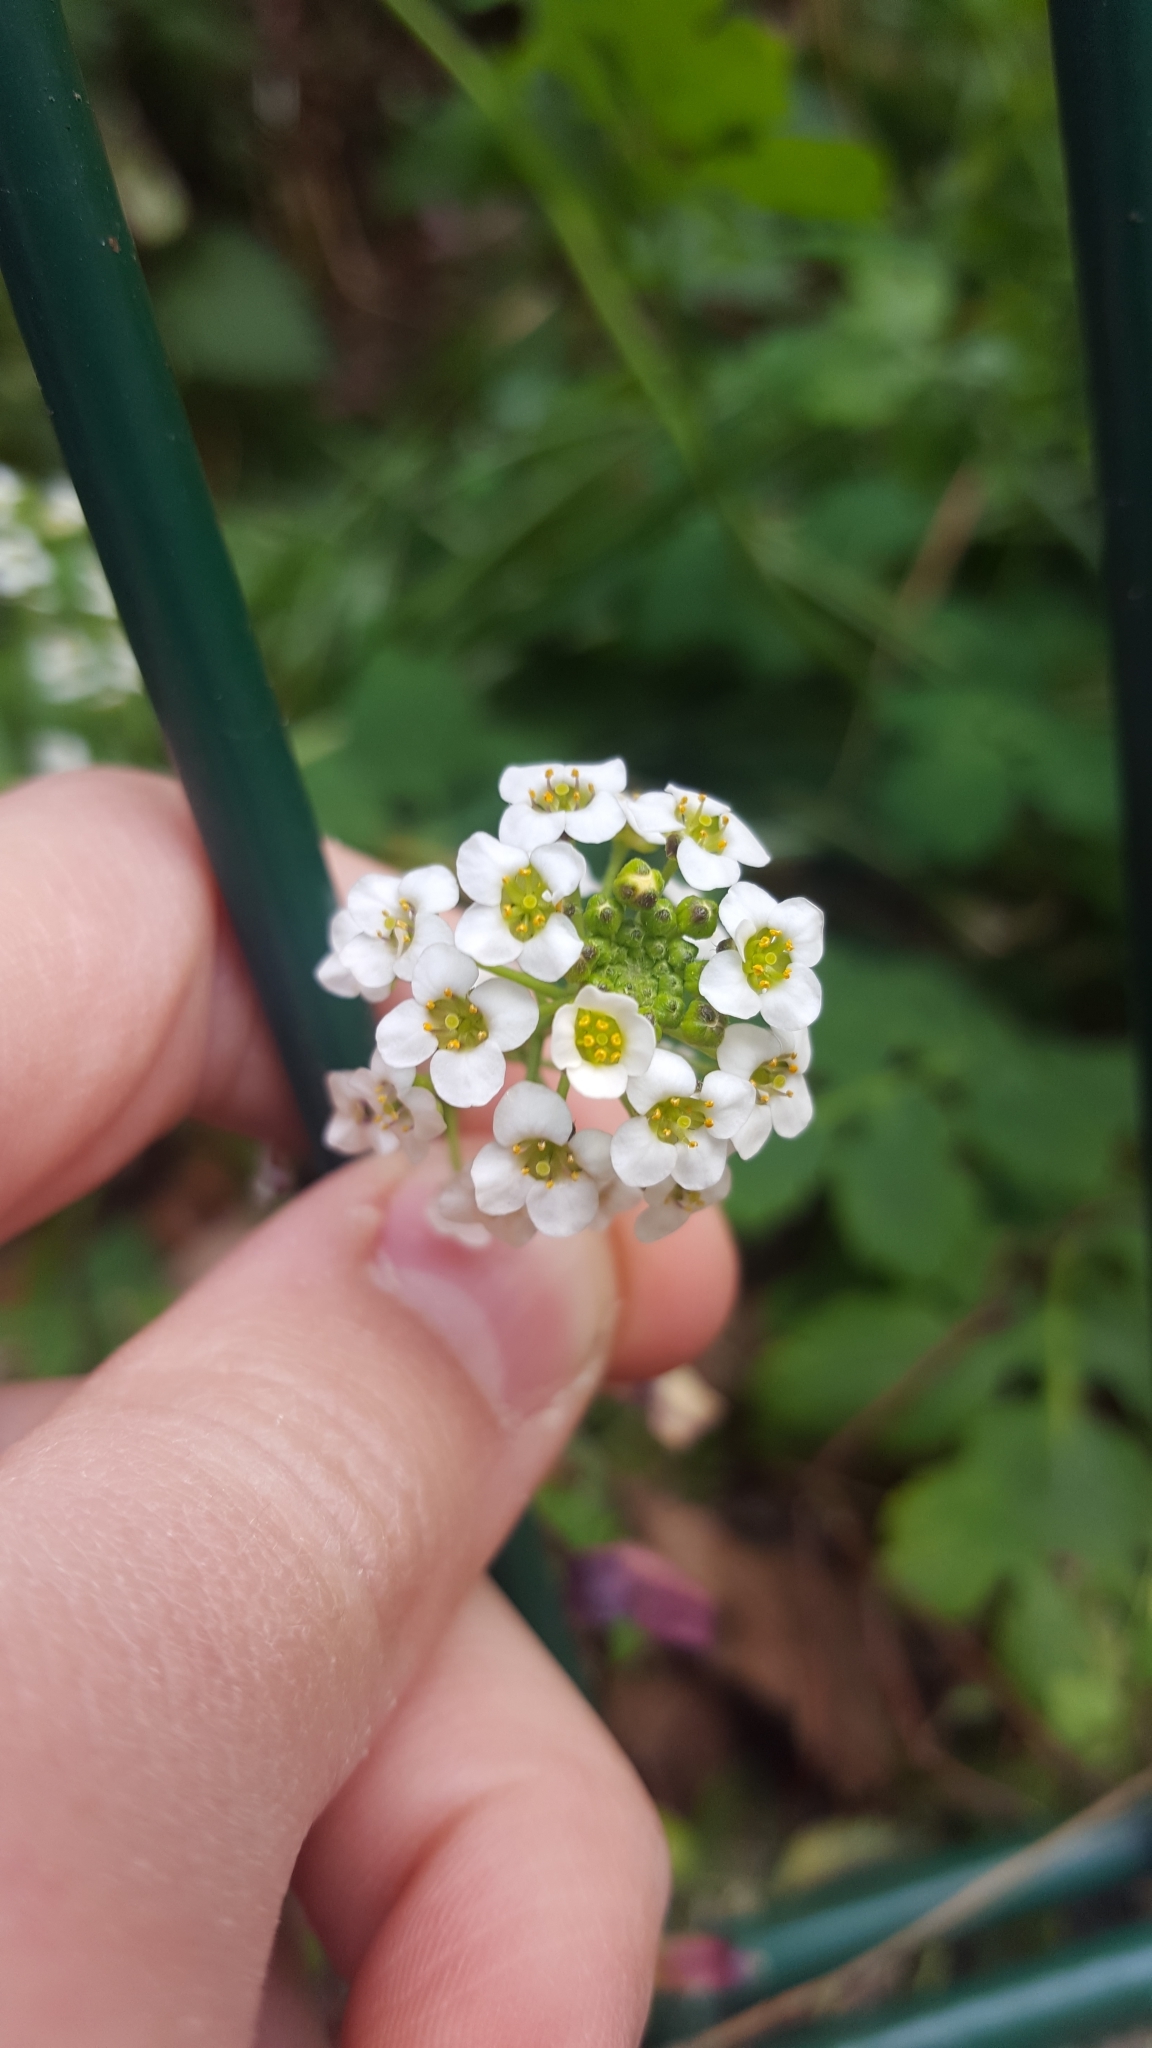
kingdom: Plantae
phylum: Tracheophyta
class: Magnoliopsida
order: Brassicales
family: Brassicaceae
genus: Lobularia
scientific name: Lobularia maritima
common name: Sweet alison
